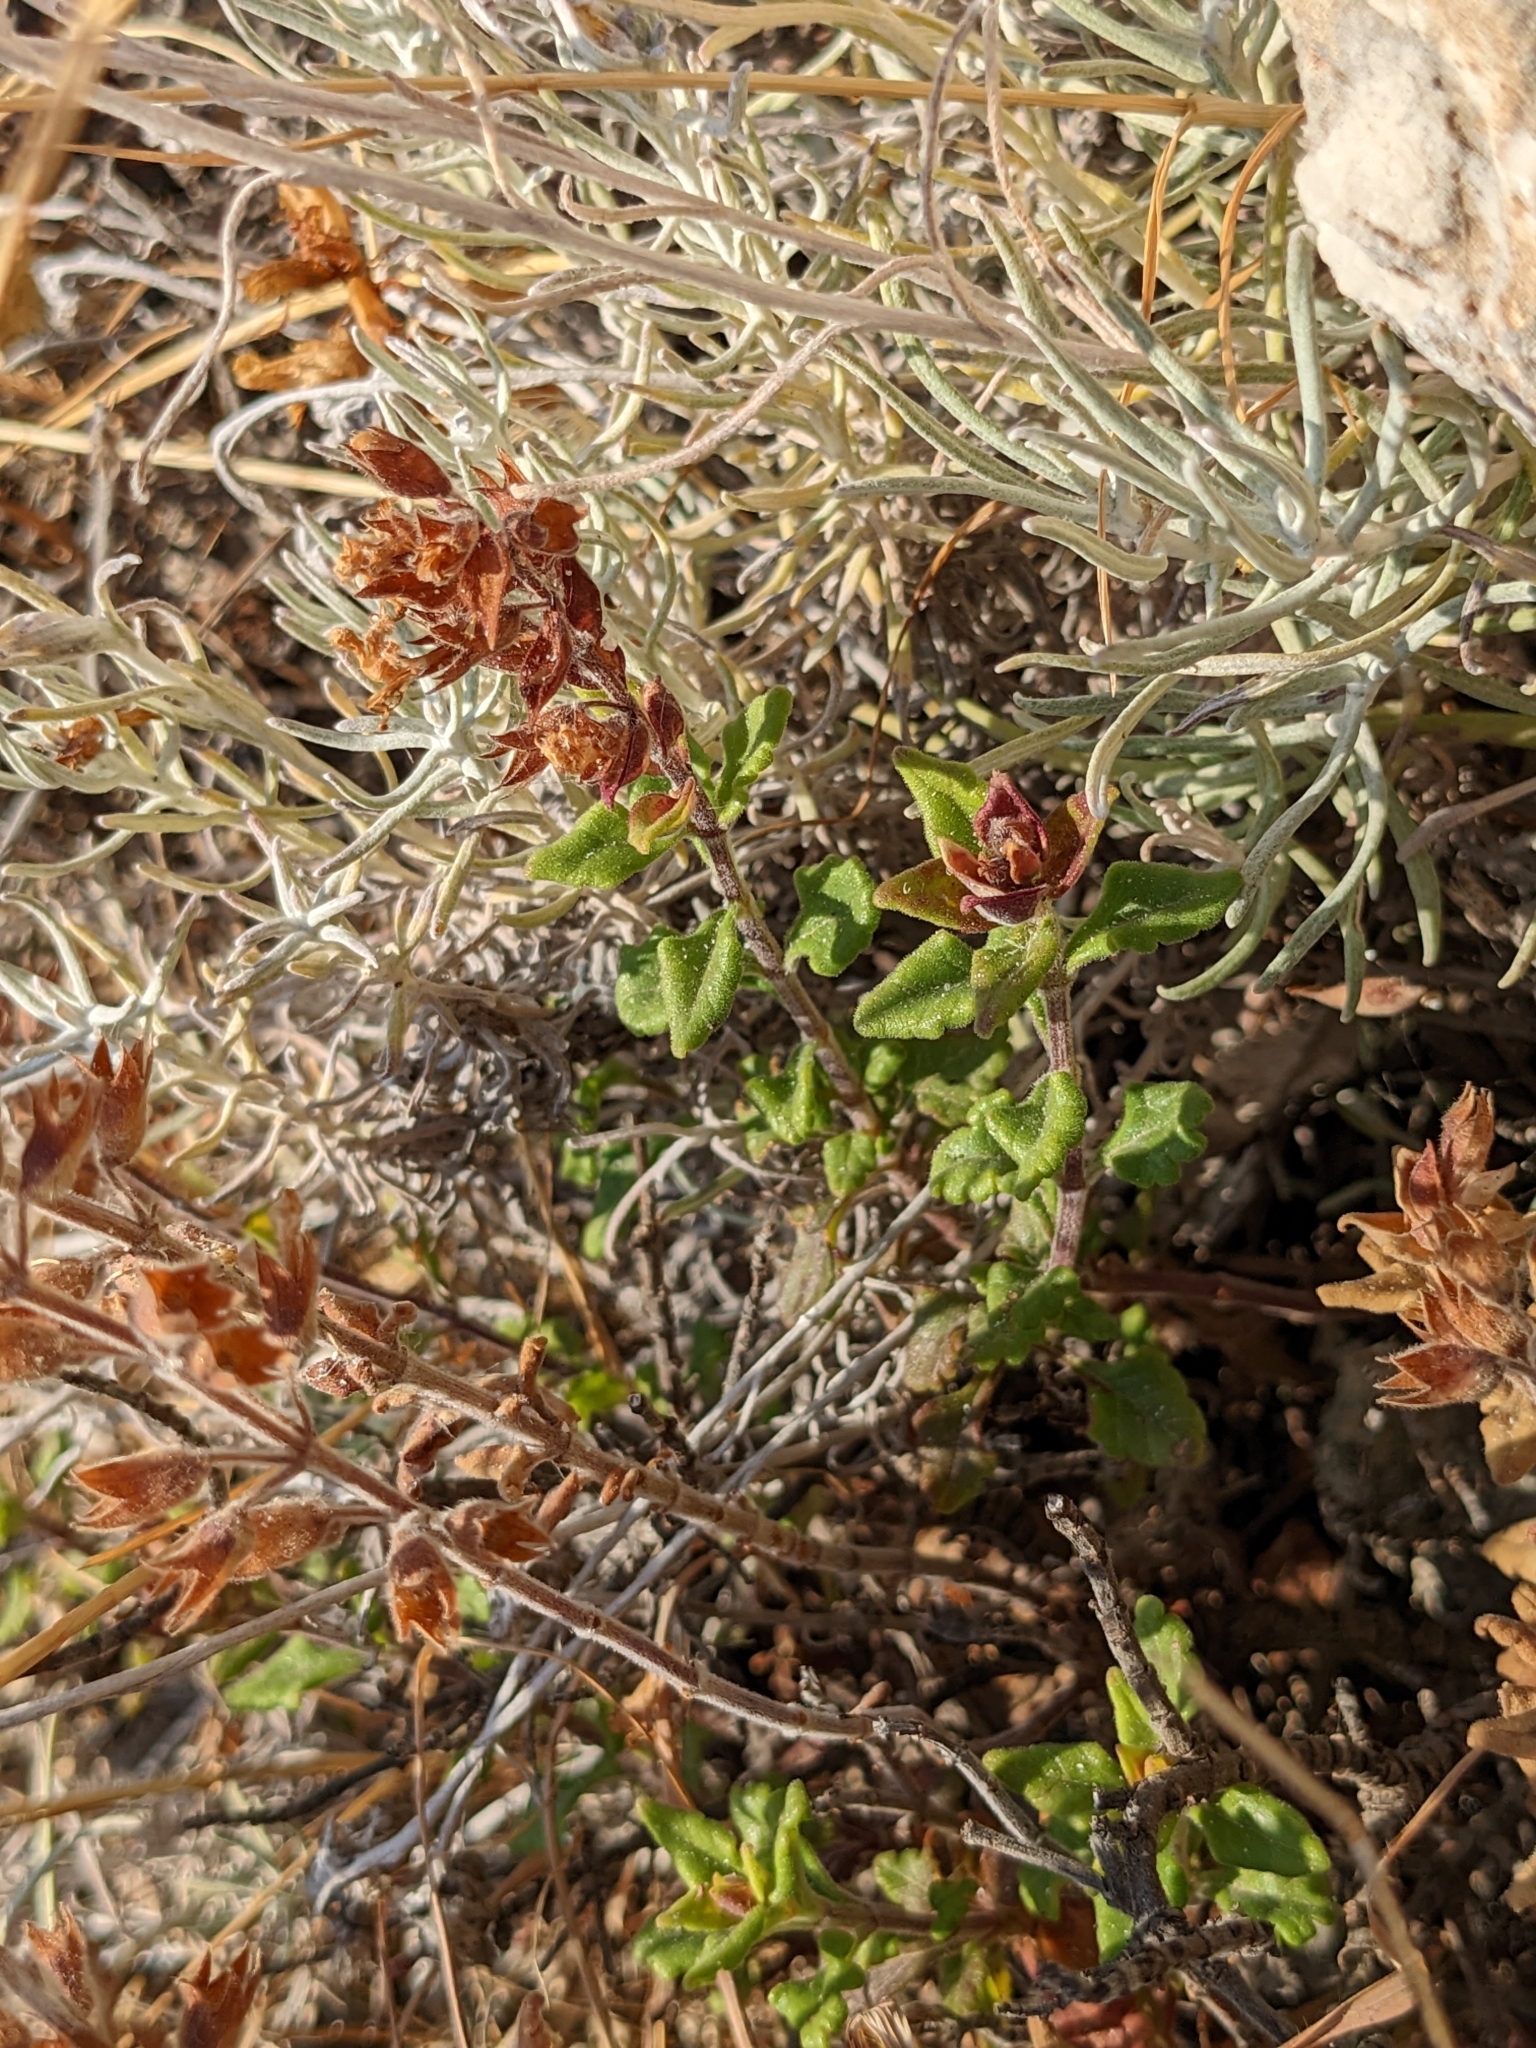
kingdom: Plantae
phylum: Tracheophyta
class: Magnoliopsida
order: Lamiales
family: Lamiaceae
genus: Teucrium
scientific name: Teucrium flavum
